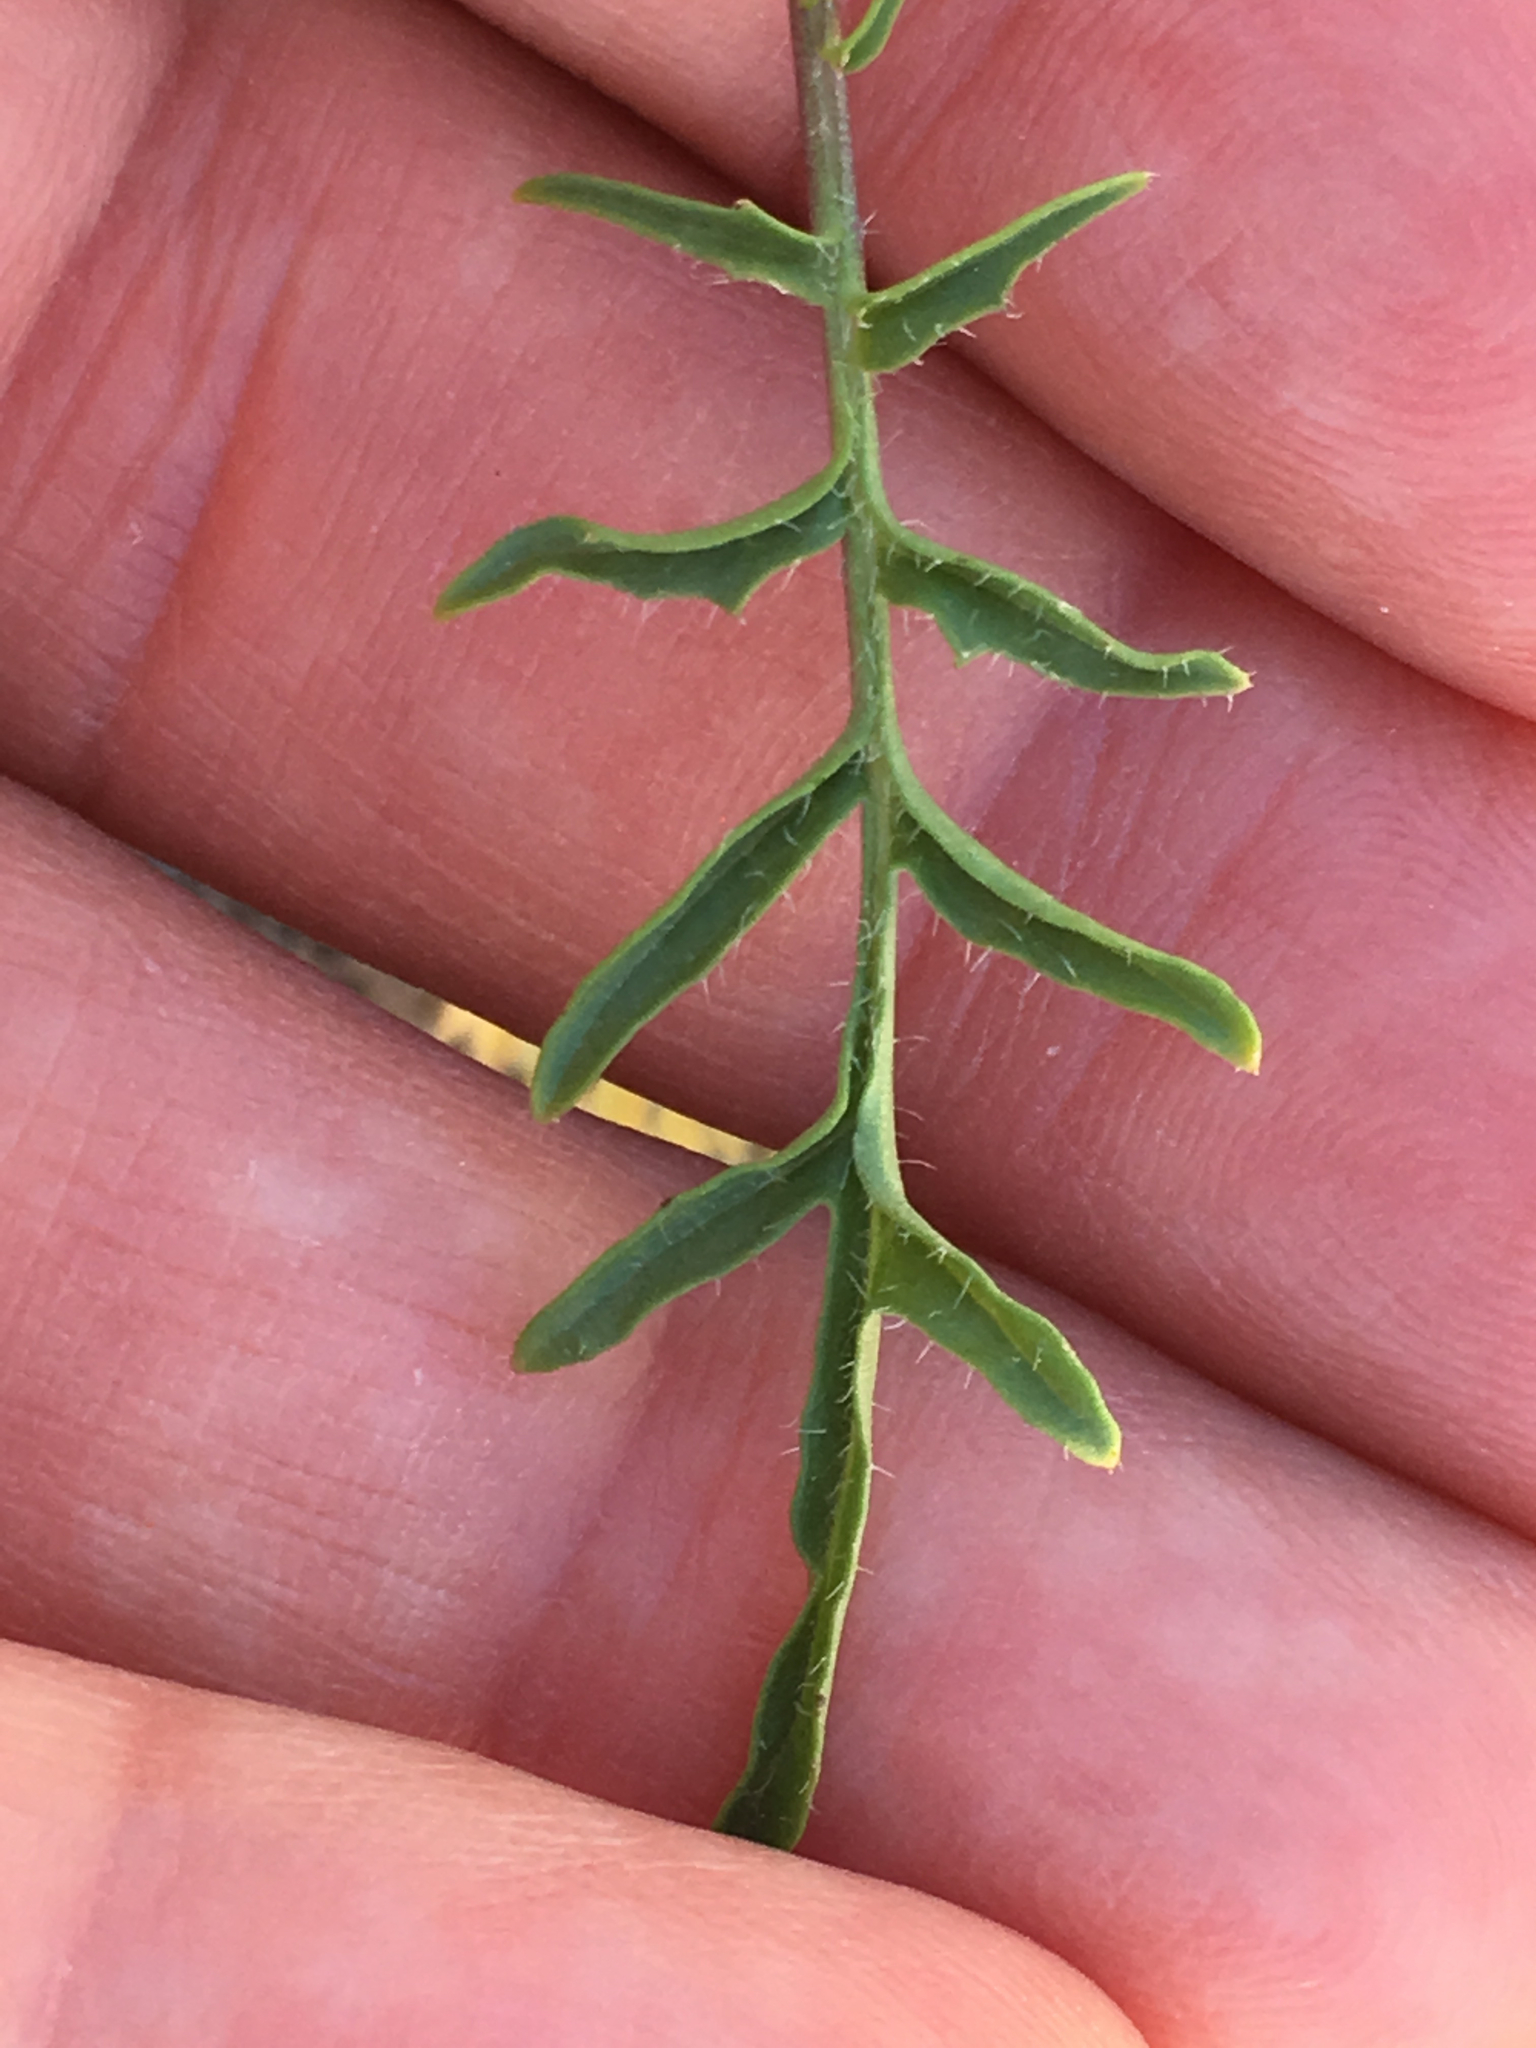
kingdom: Plantae
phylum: Tracheophyta
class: Magnoliopsida
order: Brassicales
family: Brassicaceae
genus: Sisymbrium
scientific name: Sisymbrium altissimum
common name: Tall rocket
